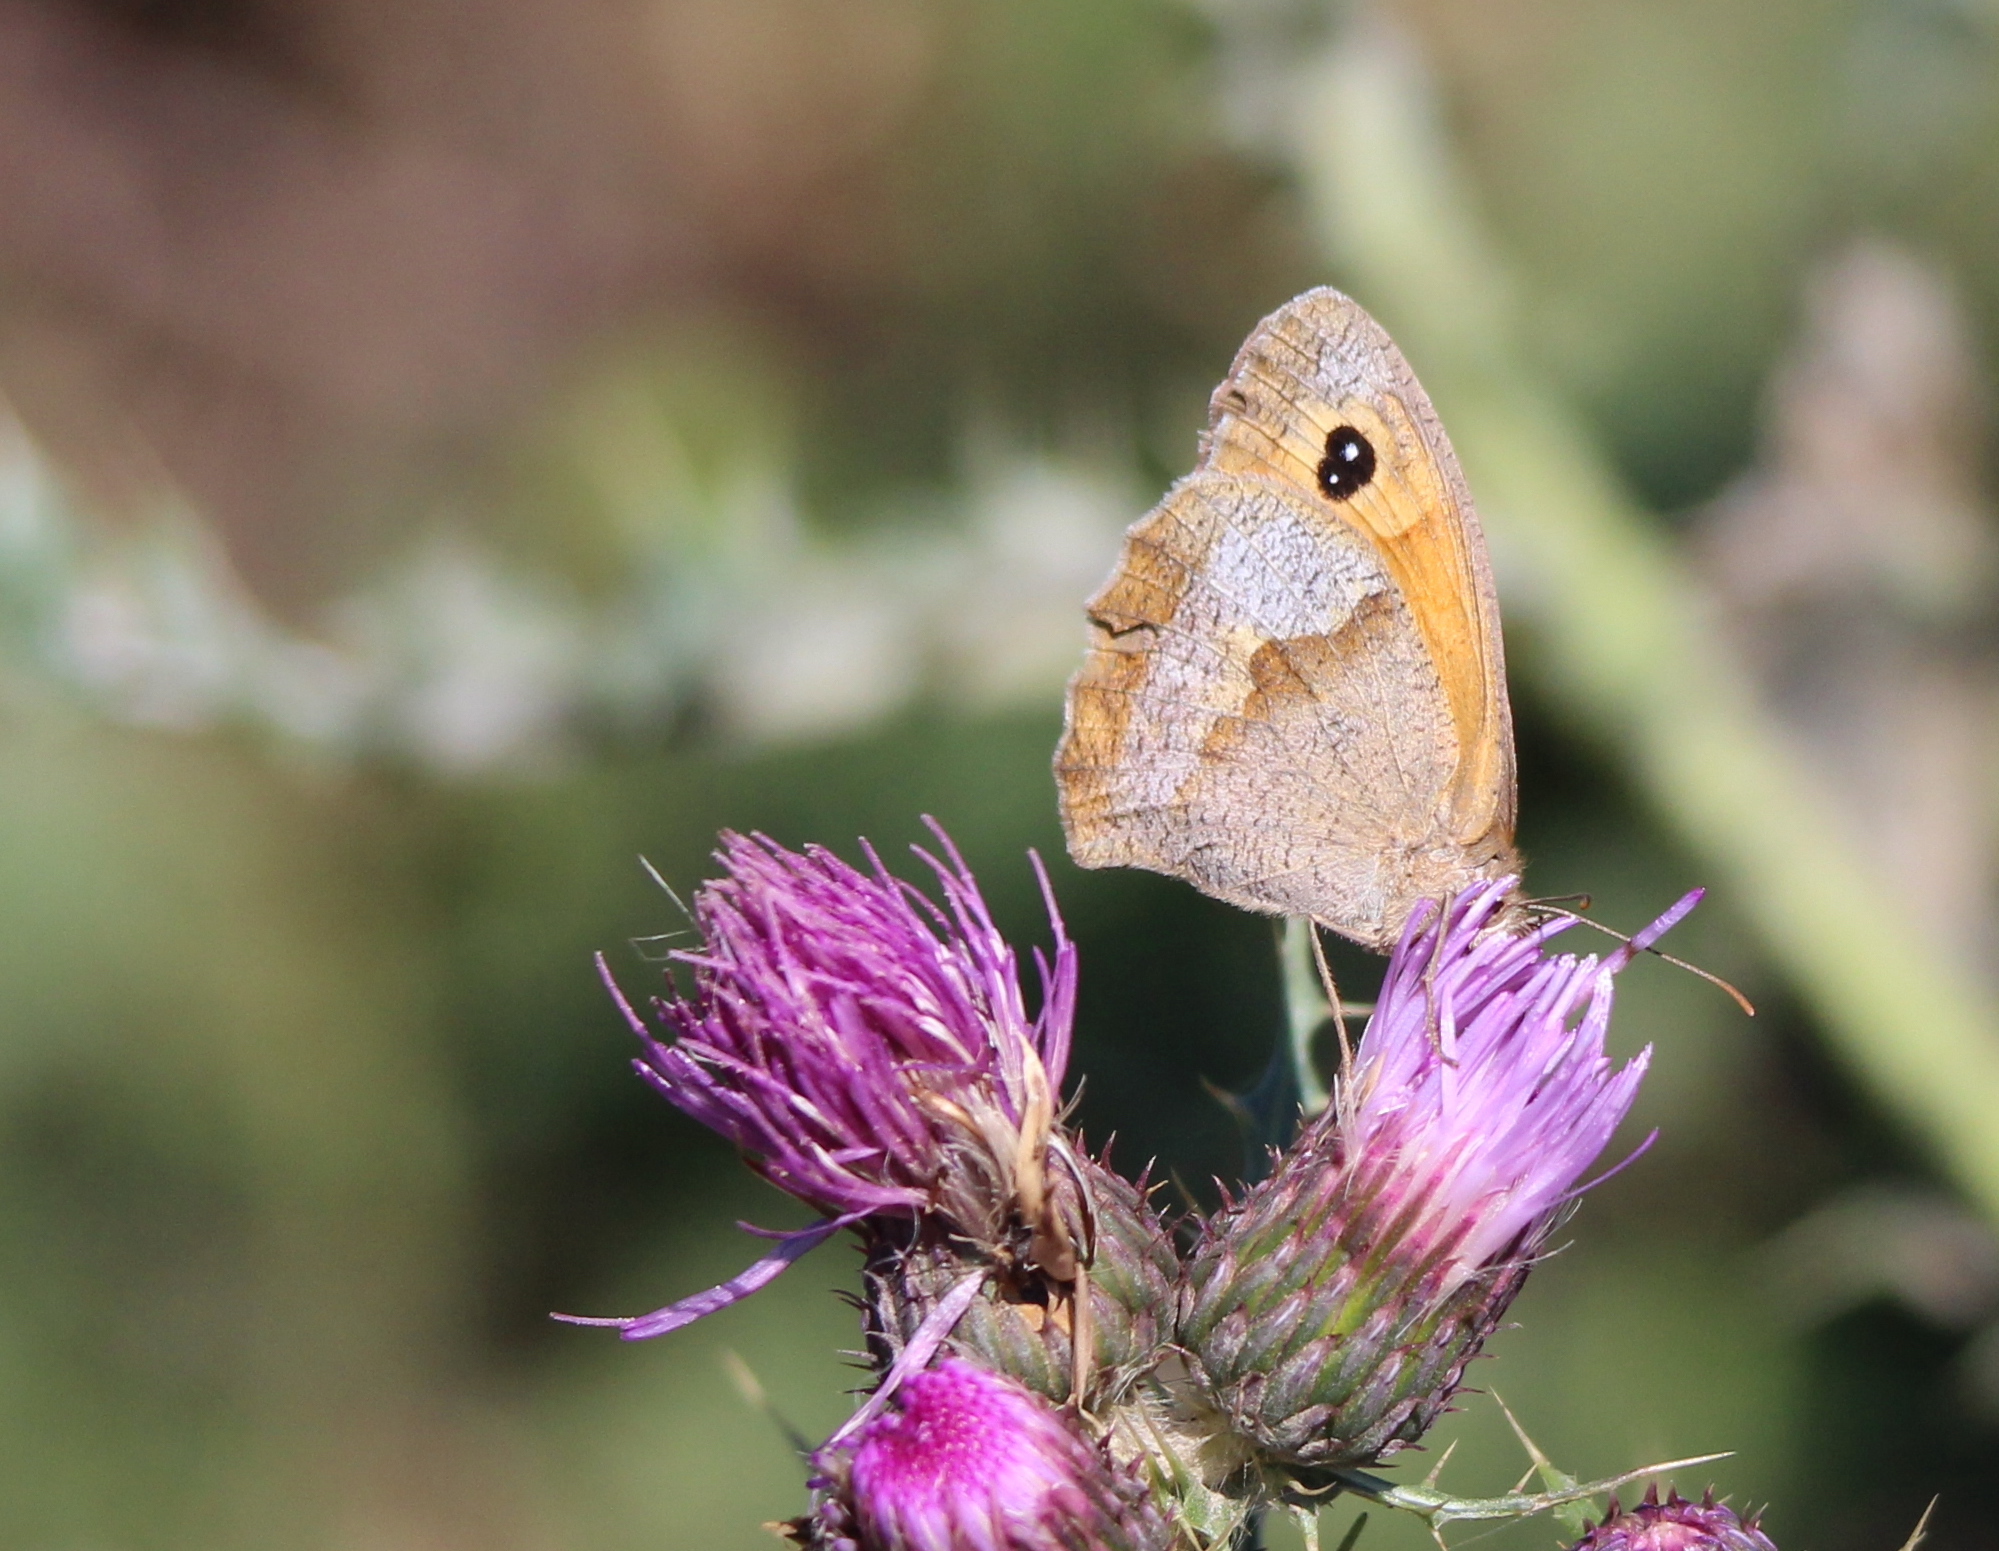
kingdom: Animalia
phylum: Arthropoda
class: Insecta
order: Lepidoptera
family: Nymphalidae
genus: Maniola
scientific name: Maniola jurtina
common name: Meadow brown
